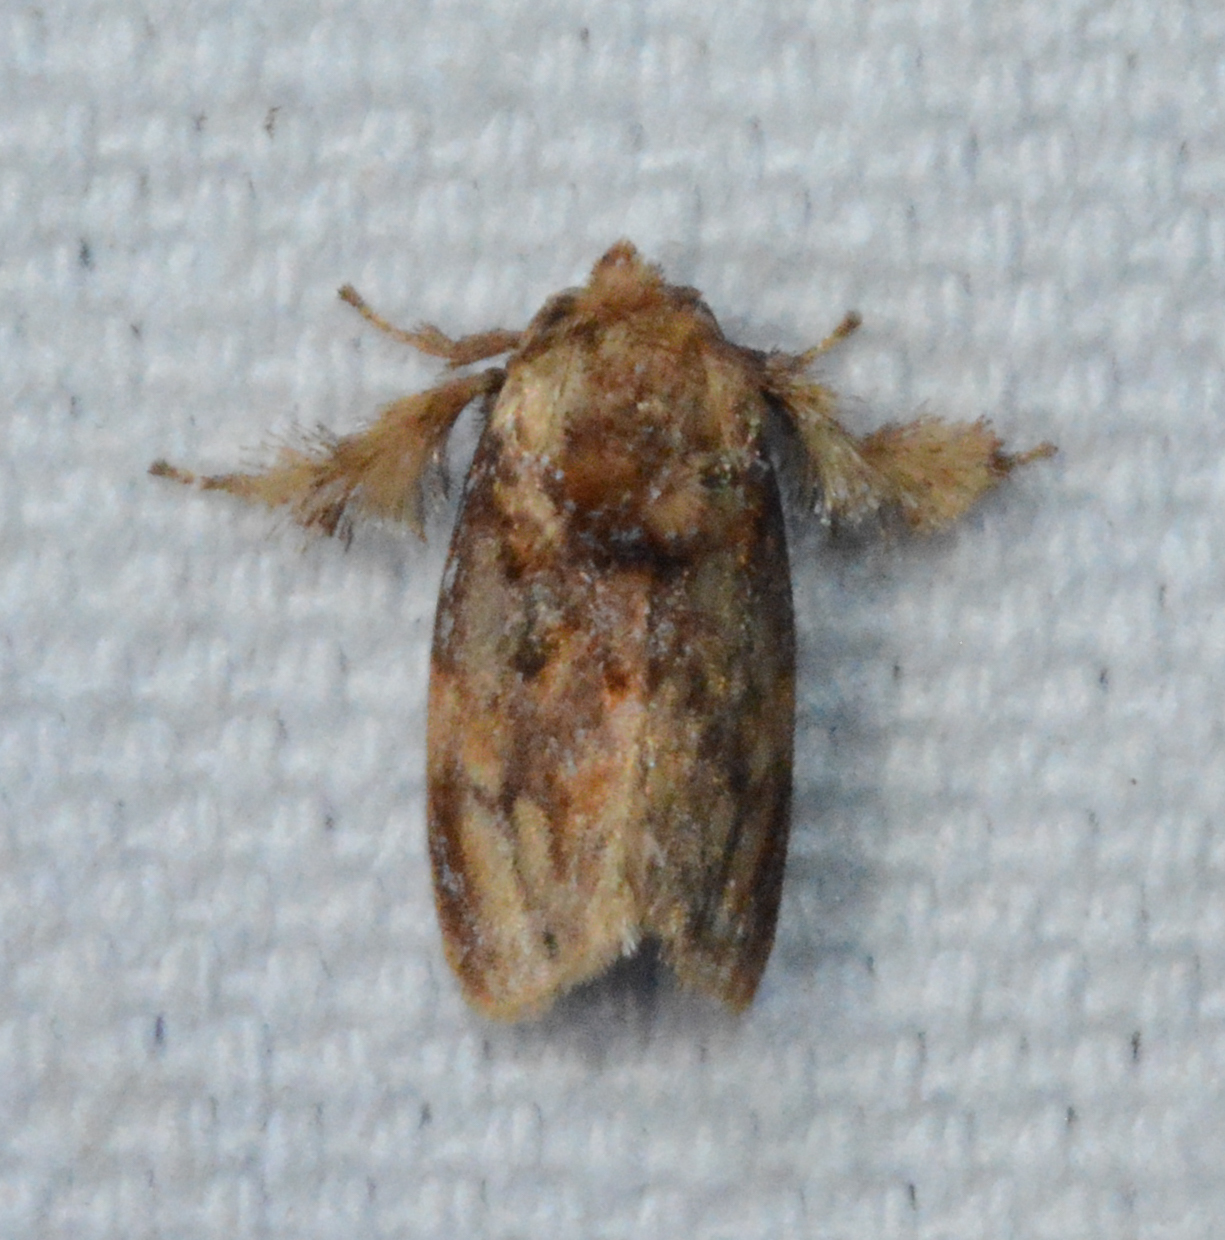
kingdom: Animalia
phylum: Arthropoda
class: Insecta
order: Lepidoptera
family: Limacodidae
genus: Isochaetes
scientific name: Isochaetes beutenmuelleri
